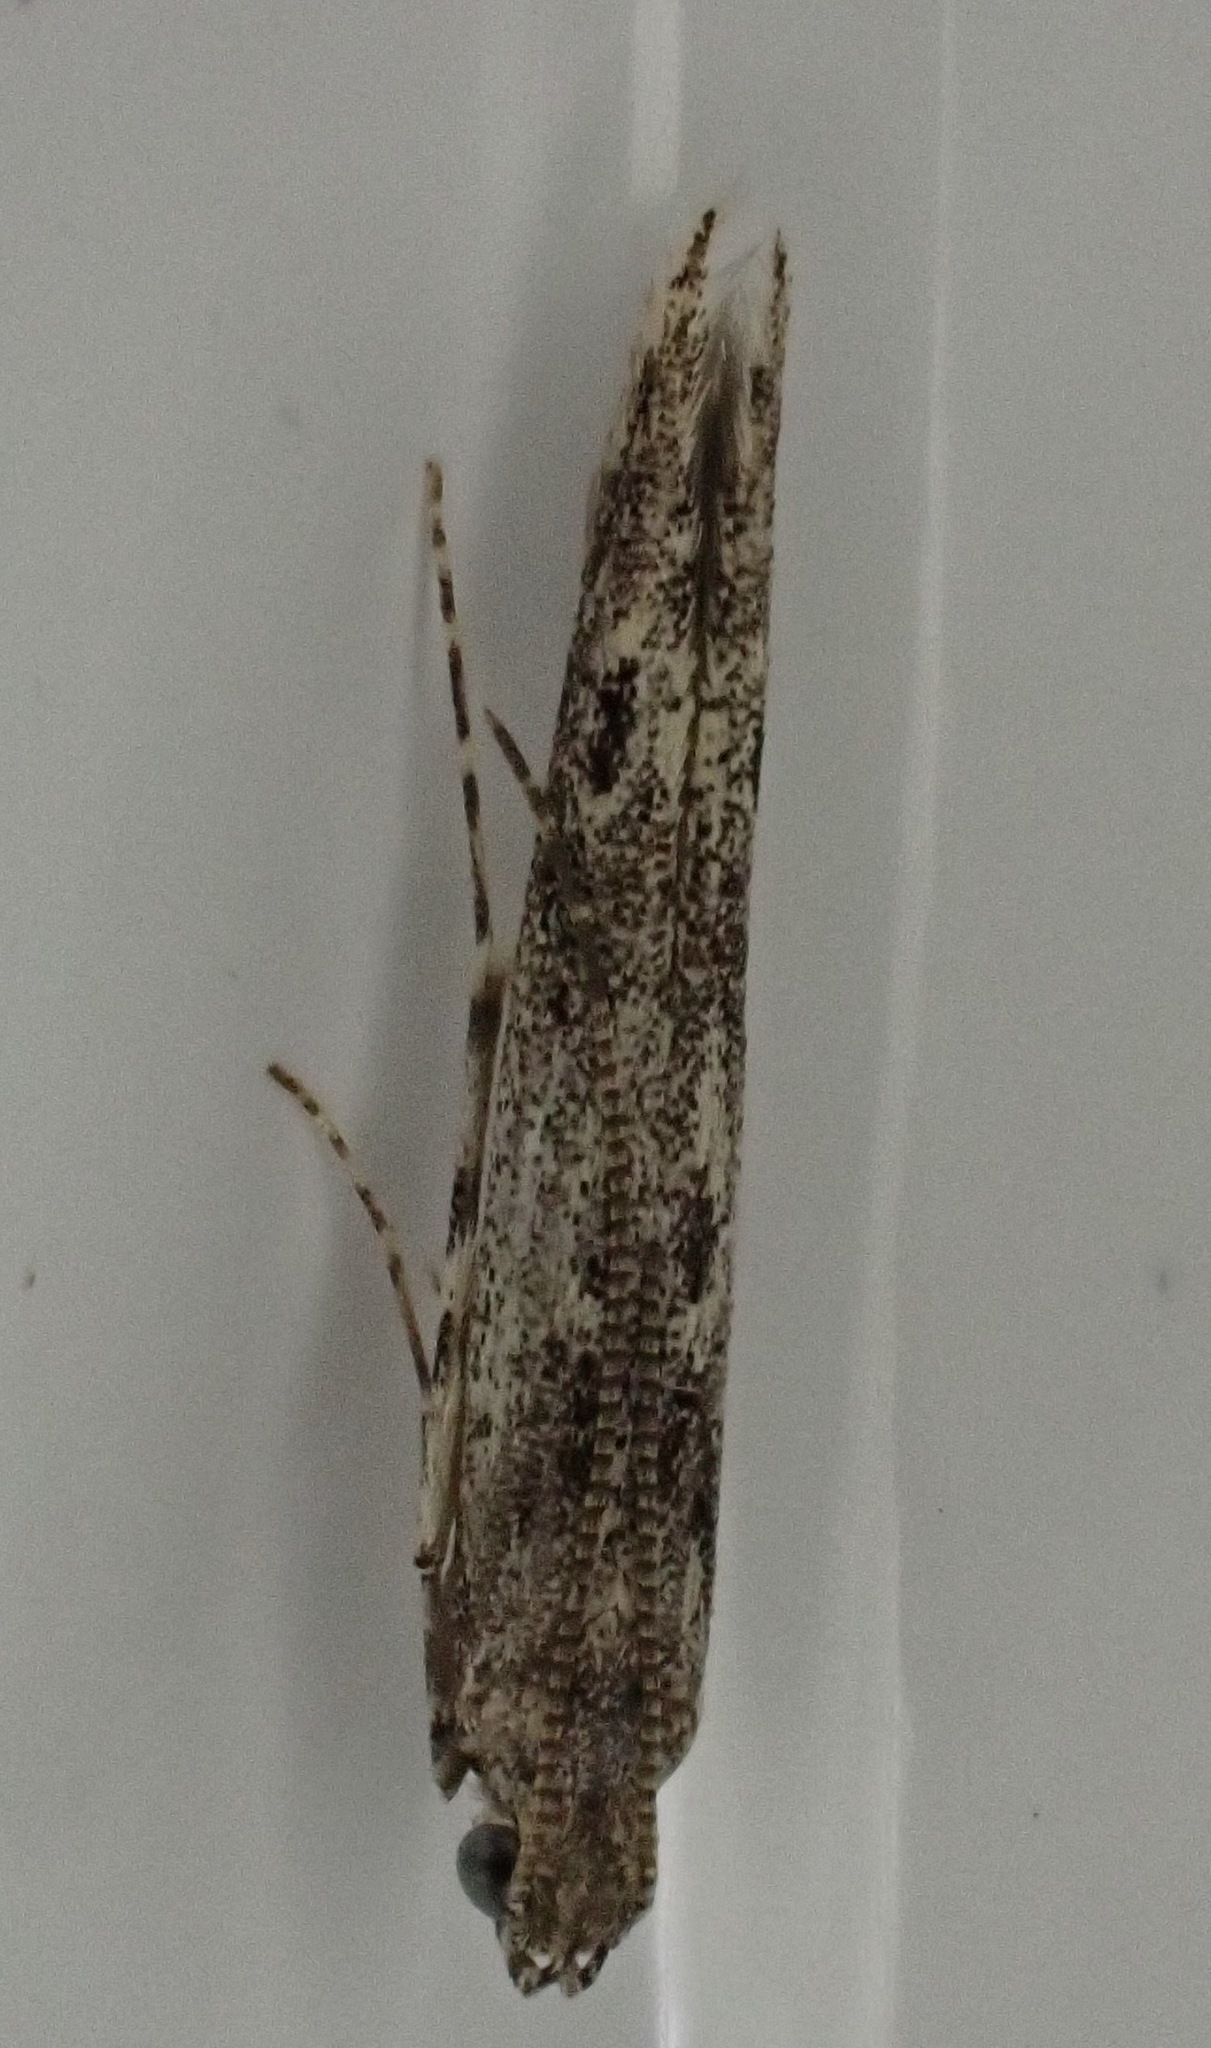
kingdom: Animalia
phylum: Arthropoda
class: Insecta
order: Lepidoptera
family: Batrachedridae
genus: Batrachedra
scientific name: Batrachedra praeangusta
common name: Poplar cosmet
